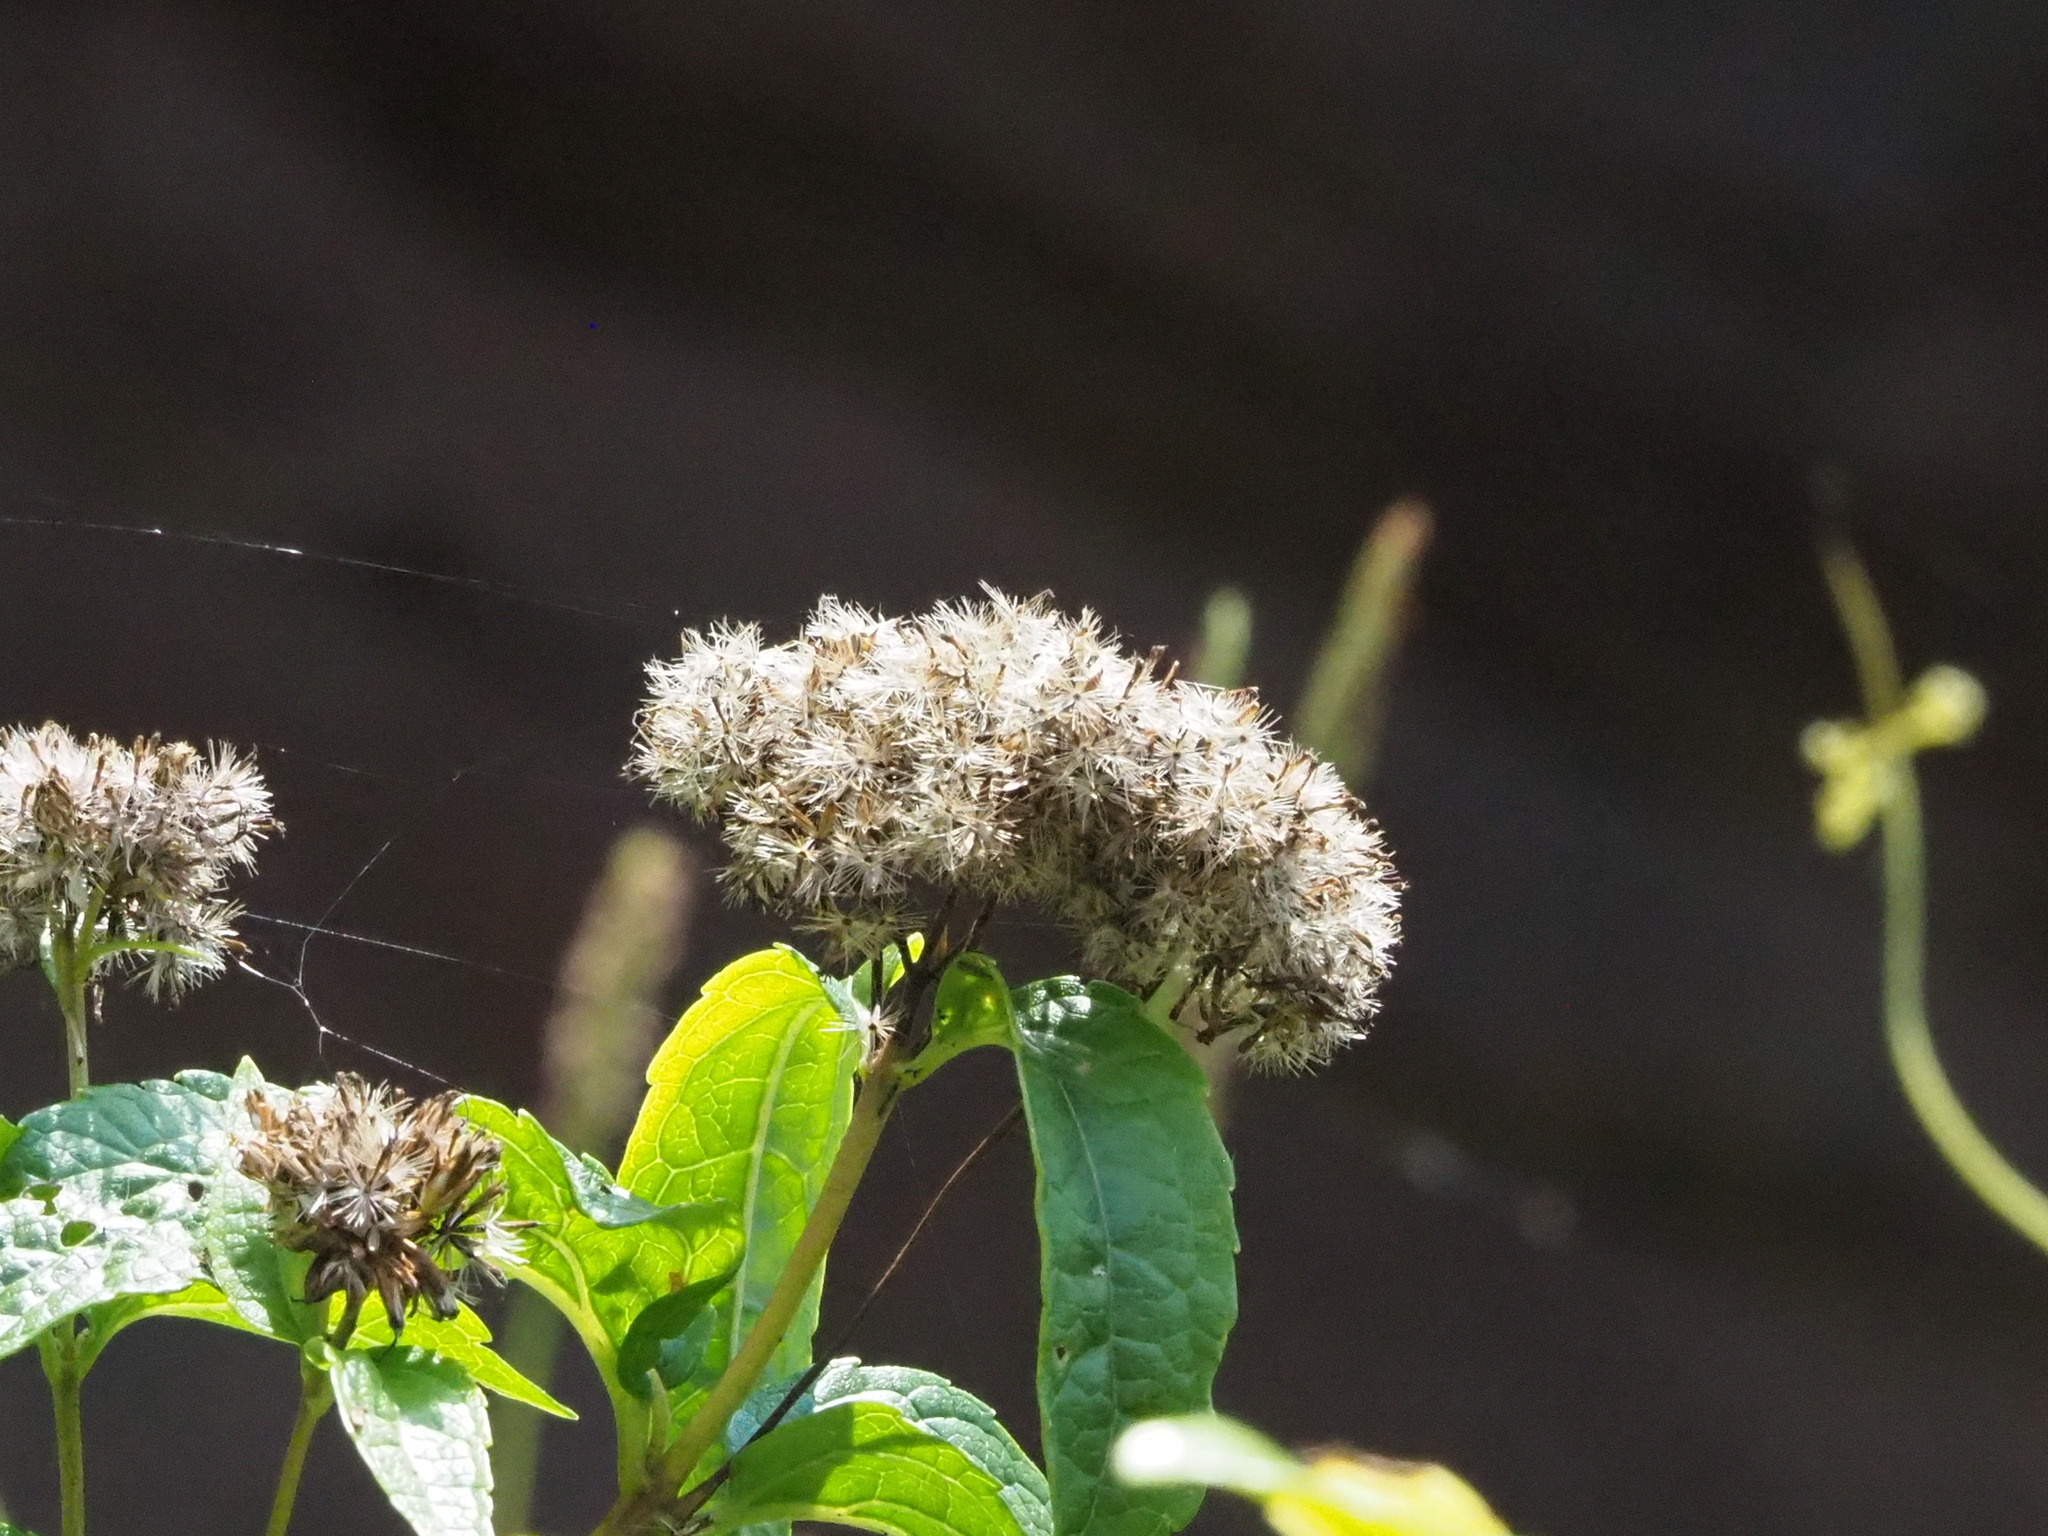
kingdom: Plantae
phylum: Tracheophyta
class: Magnoliopsida
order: Asterales
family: Asteraceae
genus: Eupatorium
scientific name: Eupatorium luchuense
